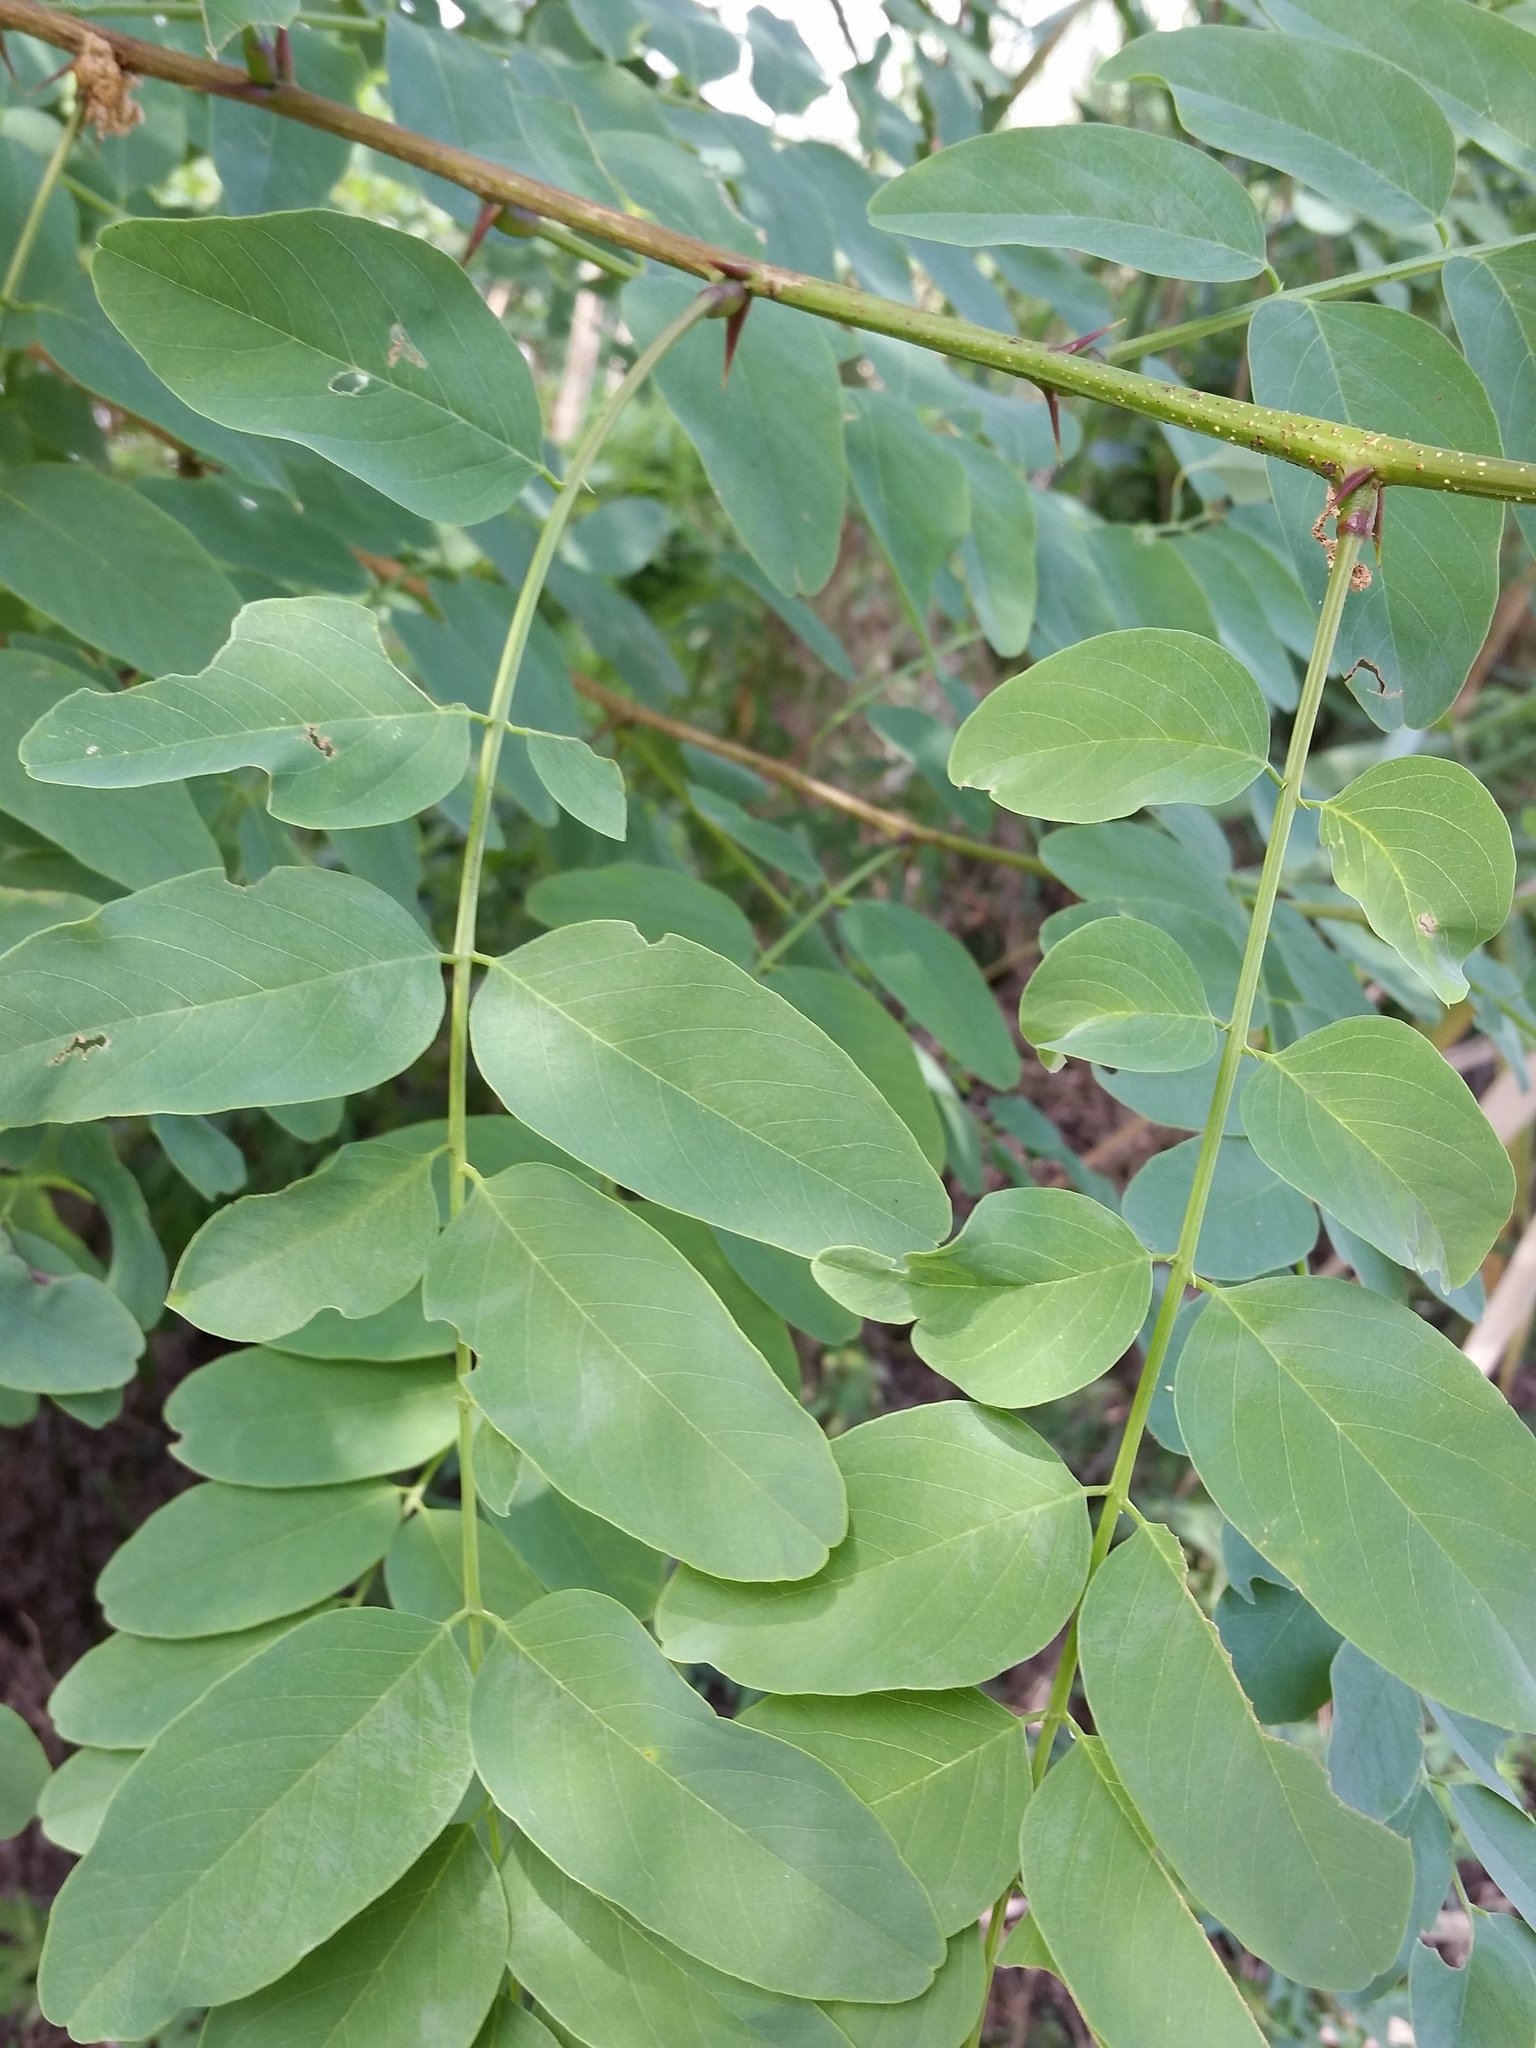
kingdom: Plantae
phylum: Tracheophyta
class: Magnoliopsida
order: Fabales
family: Fabaceae
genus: Robinia
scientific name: Robinia pseudoacacia
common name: Black locust
